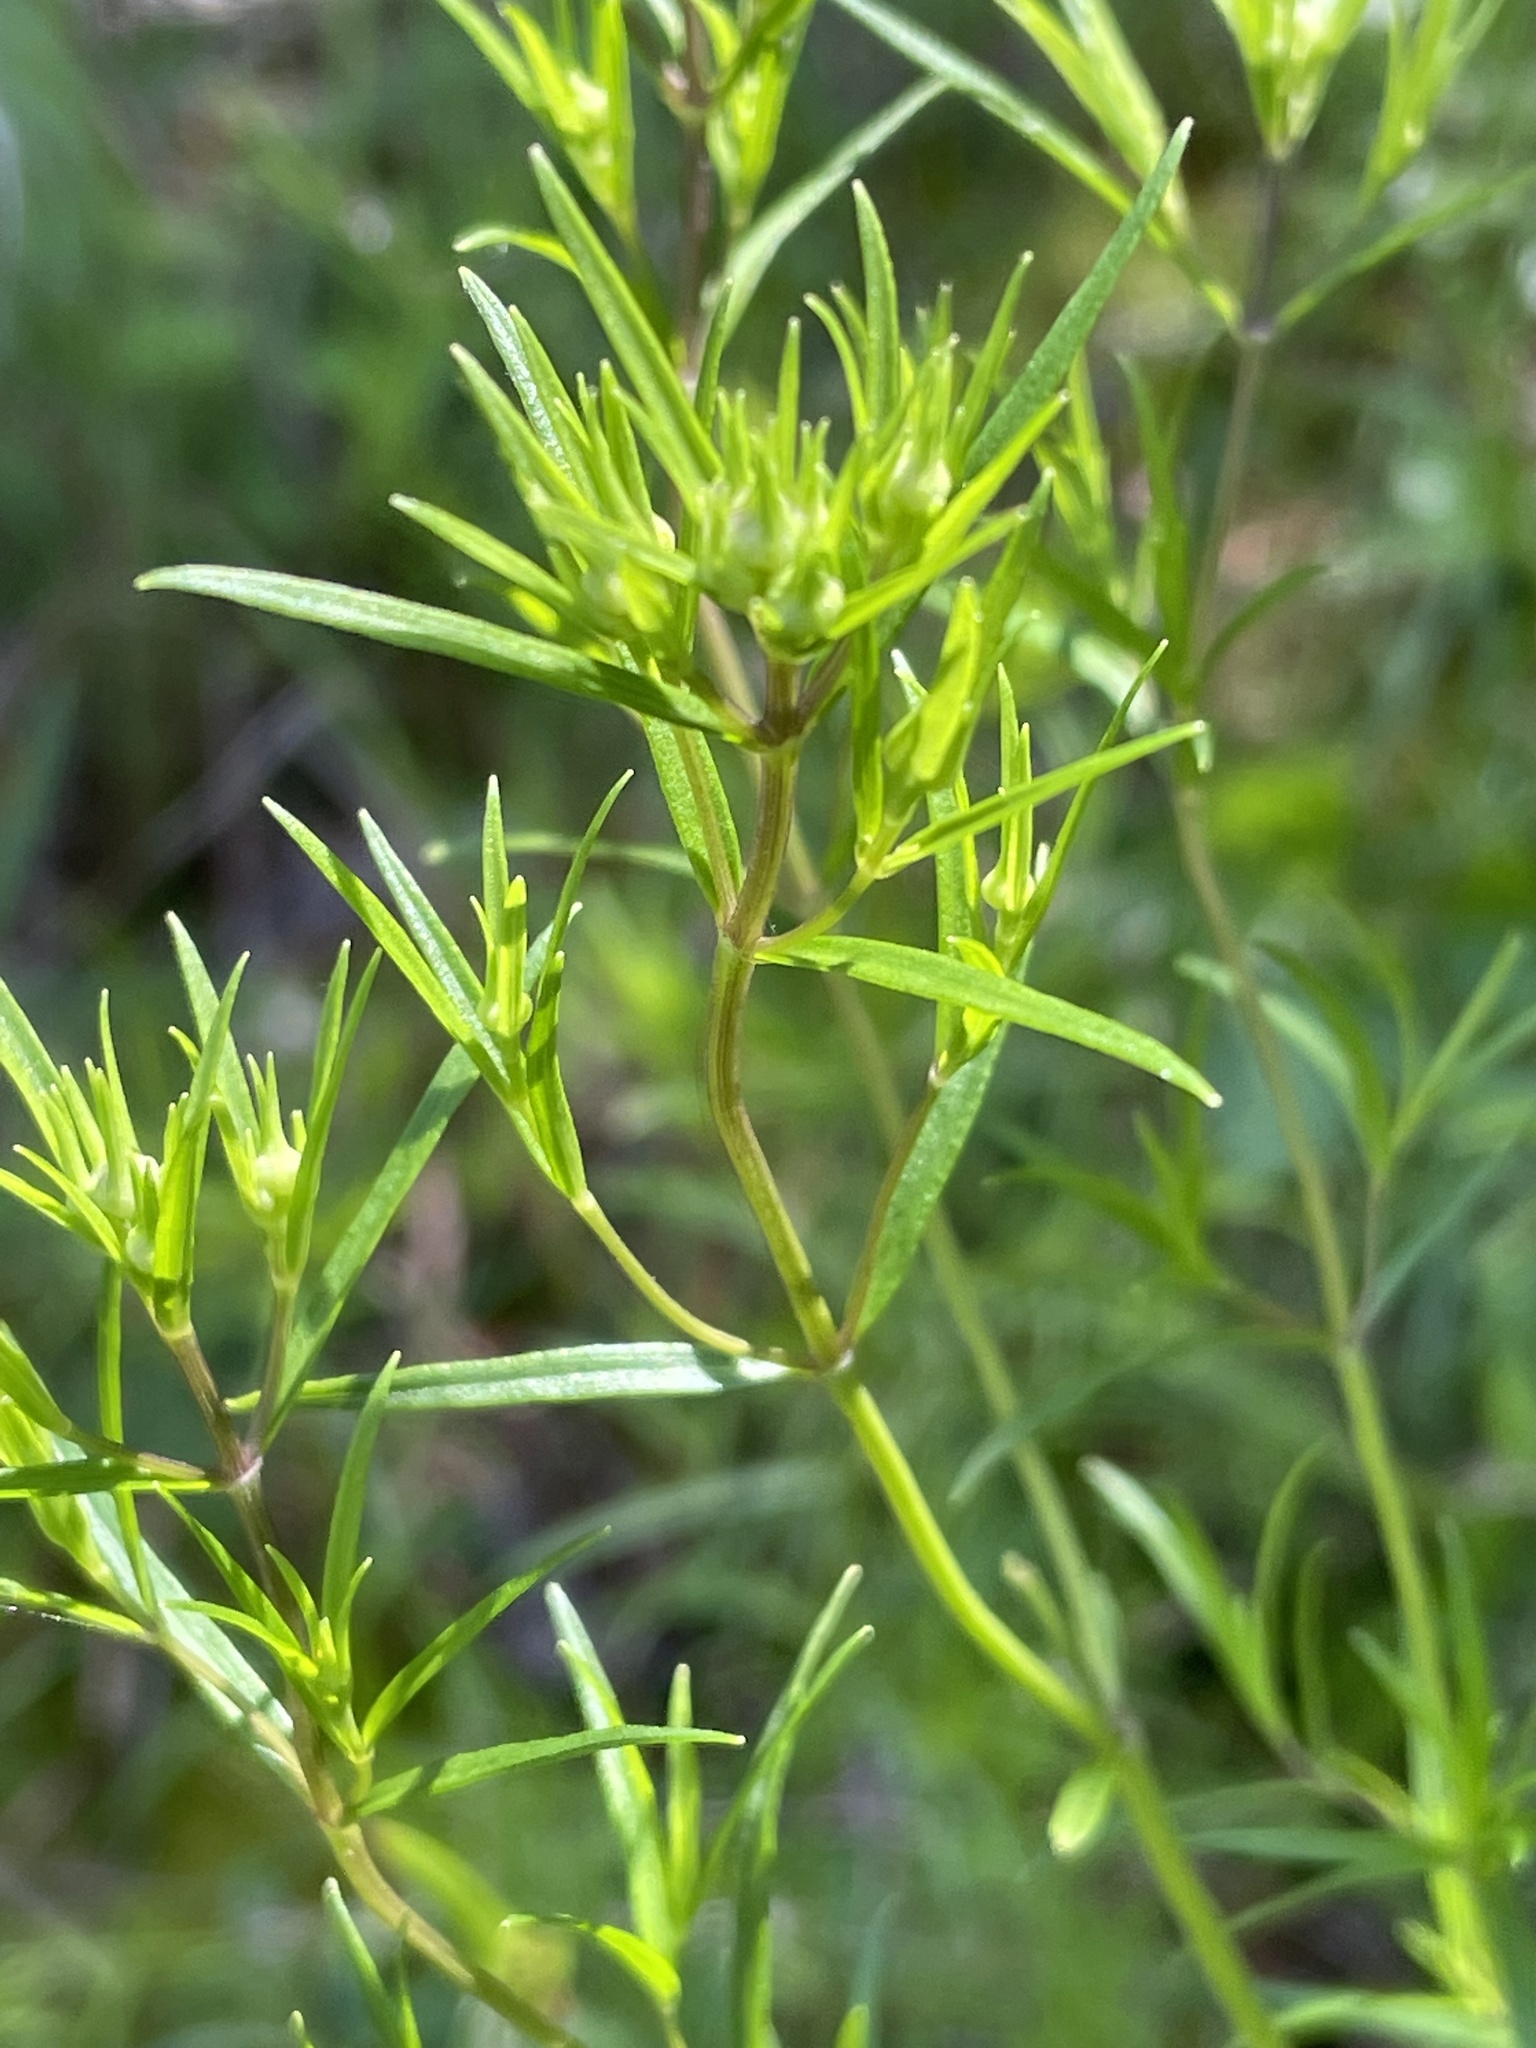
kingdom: Plantae
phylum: Tracheophyta
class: Magnoliopsida
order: Lamiales
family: Lamiaceae
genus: Pycnanthemum
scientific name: Pycnanthemum tenuifolium
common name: Narrow-leaf mountain-mint
